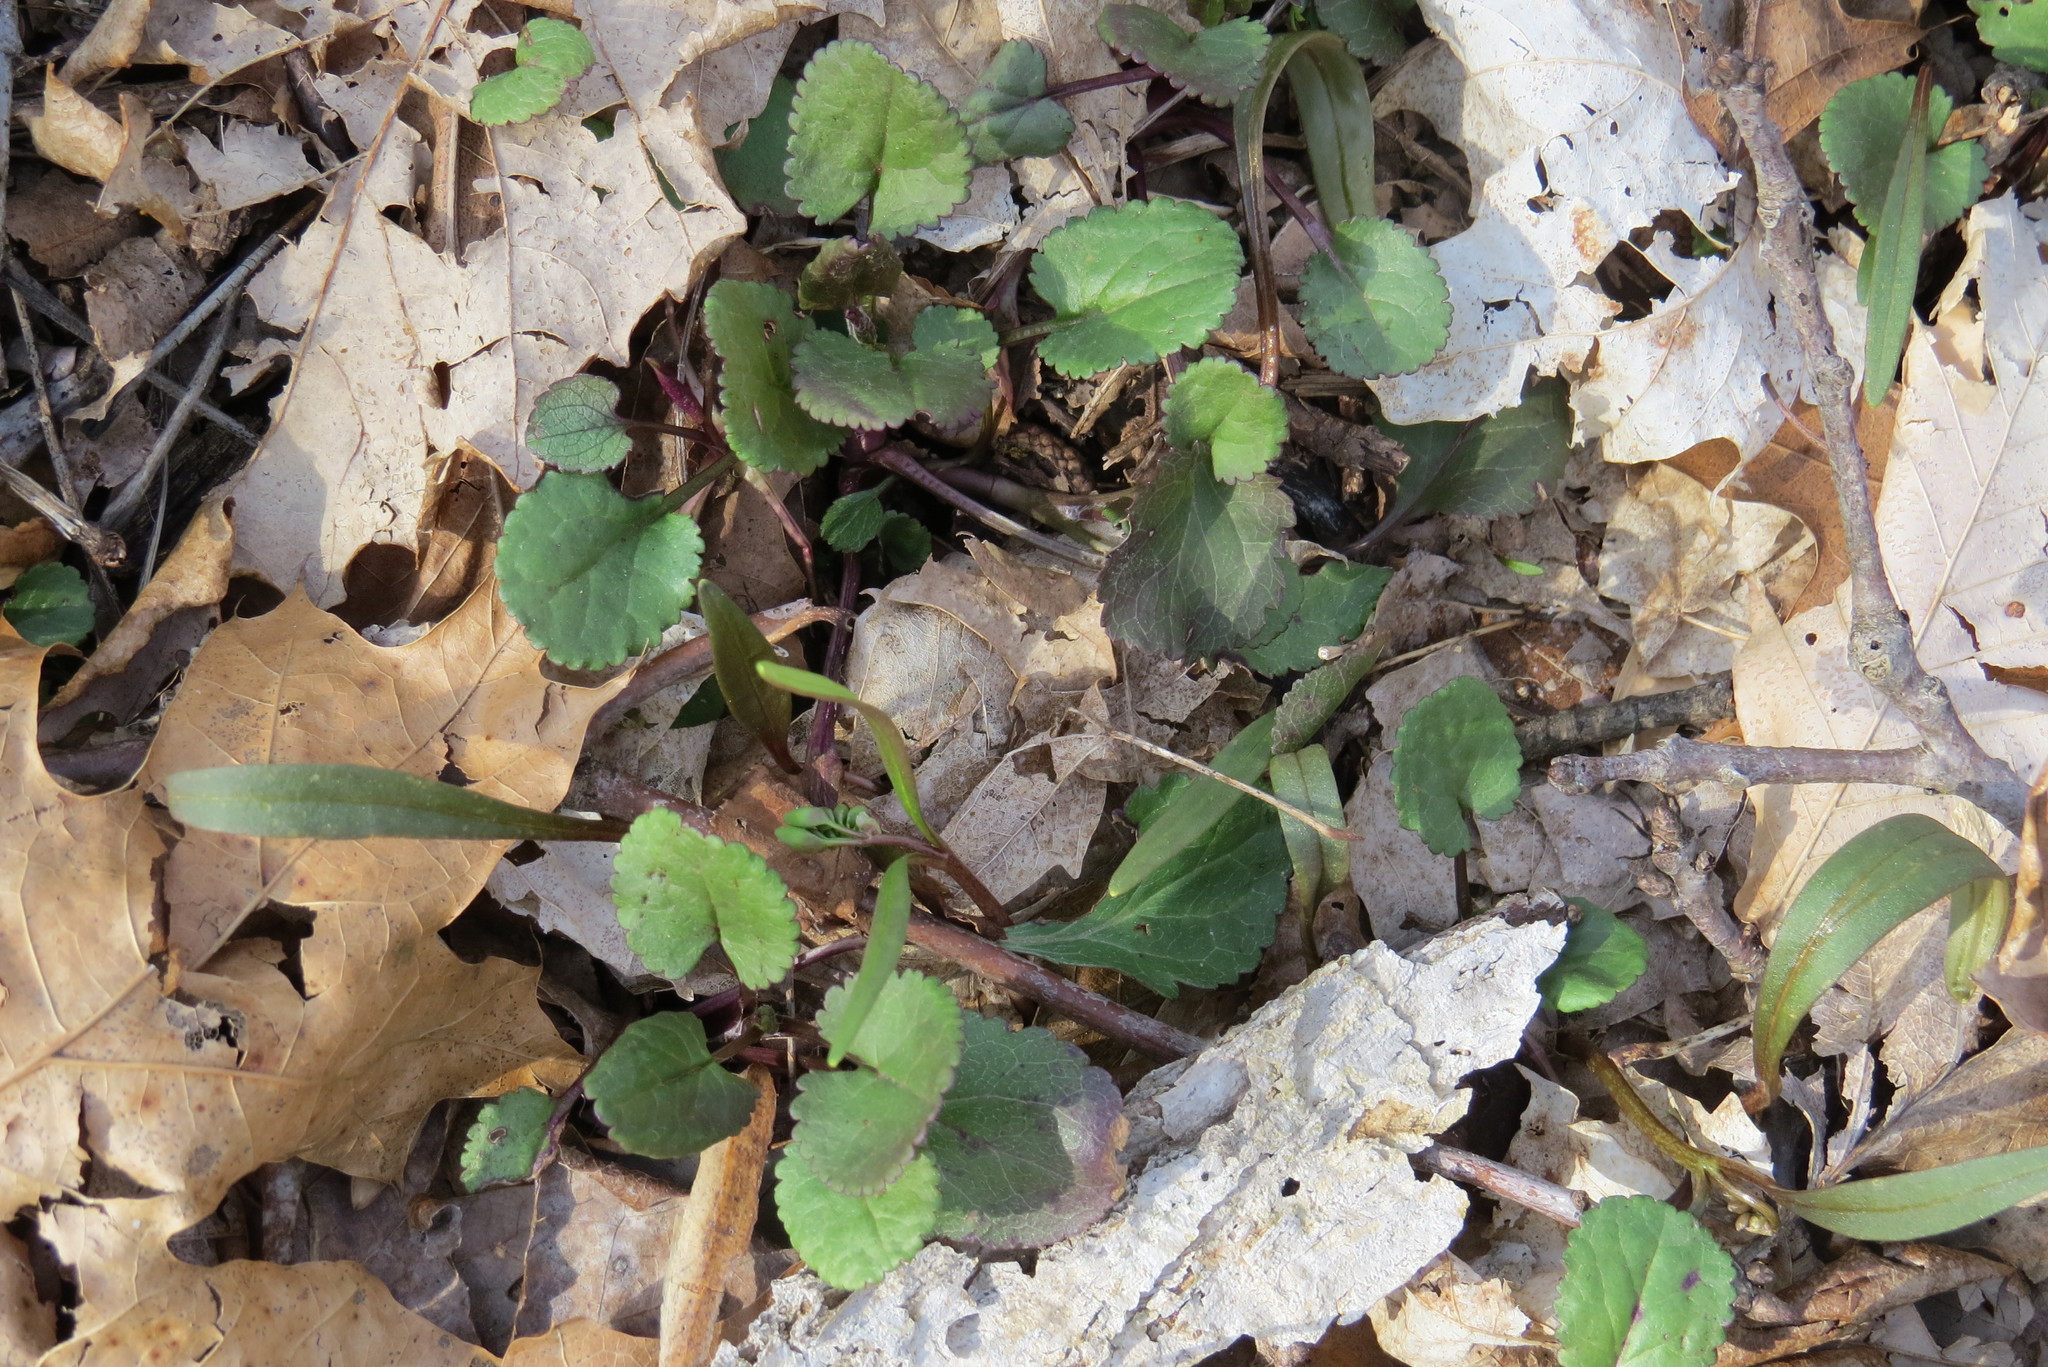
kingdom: Plantae
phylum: Tracheophyta
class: Magnoliopsida
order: Asterales
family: Asteraceae
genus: Packera
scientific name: Packera aurea
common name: Golden groundsel
